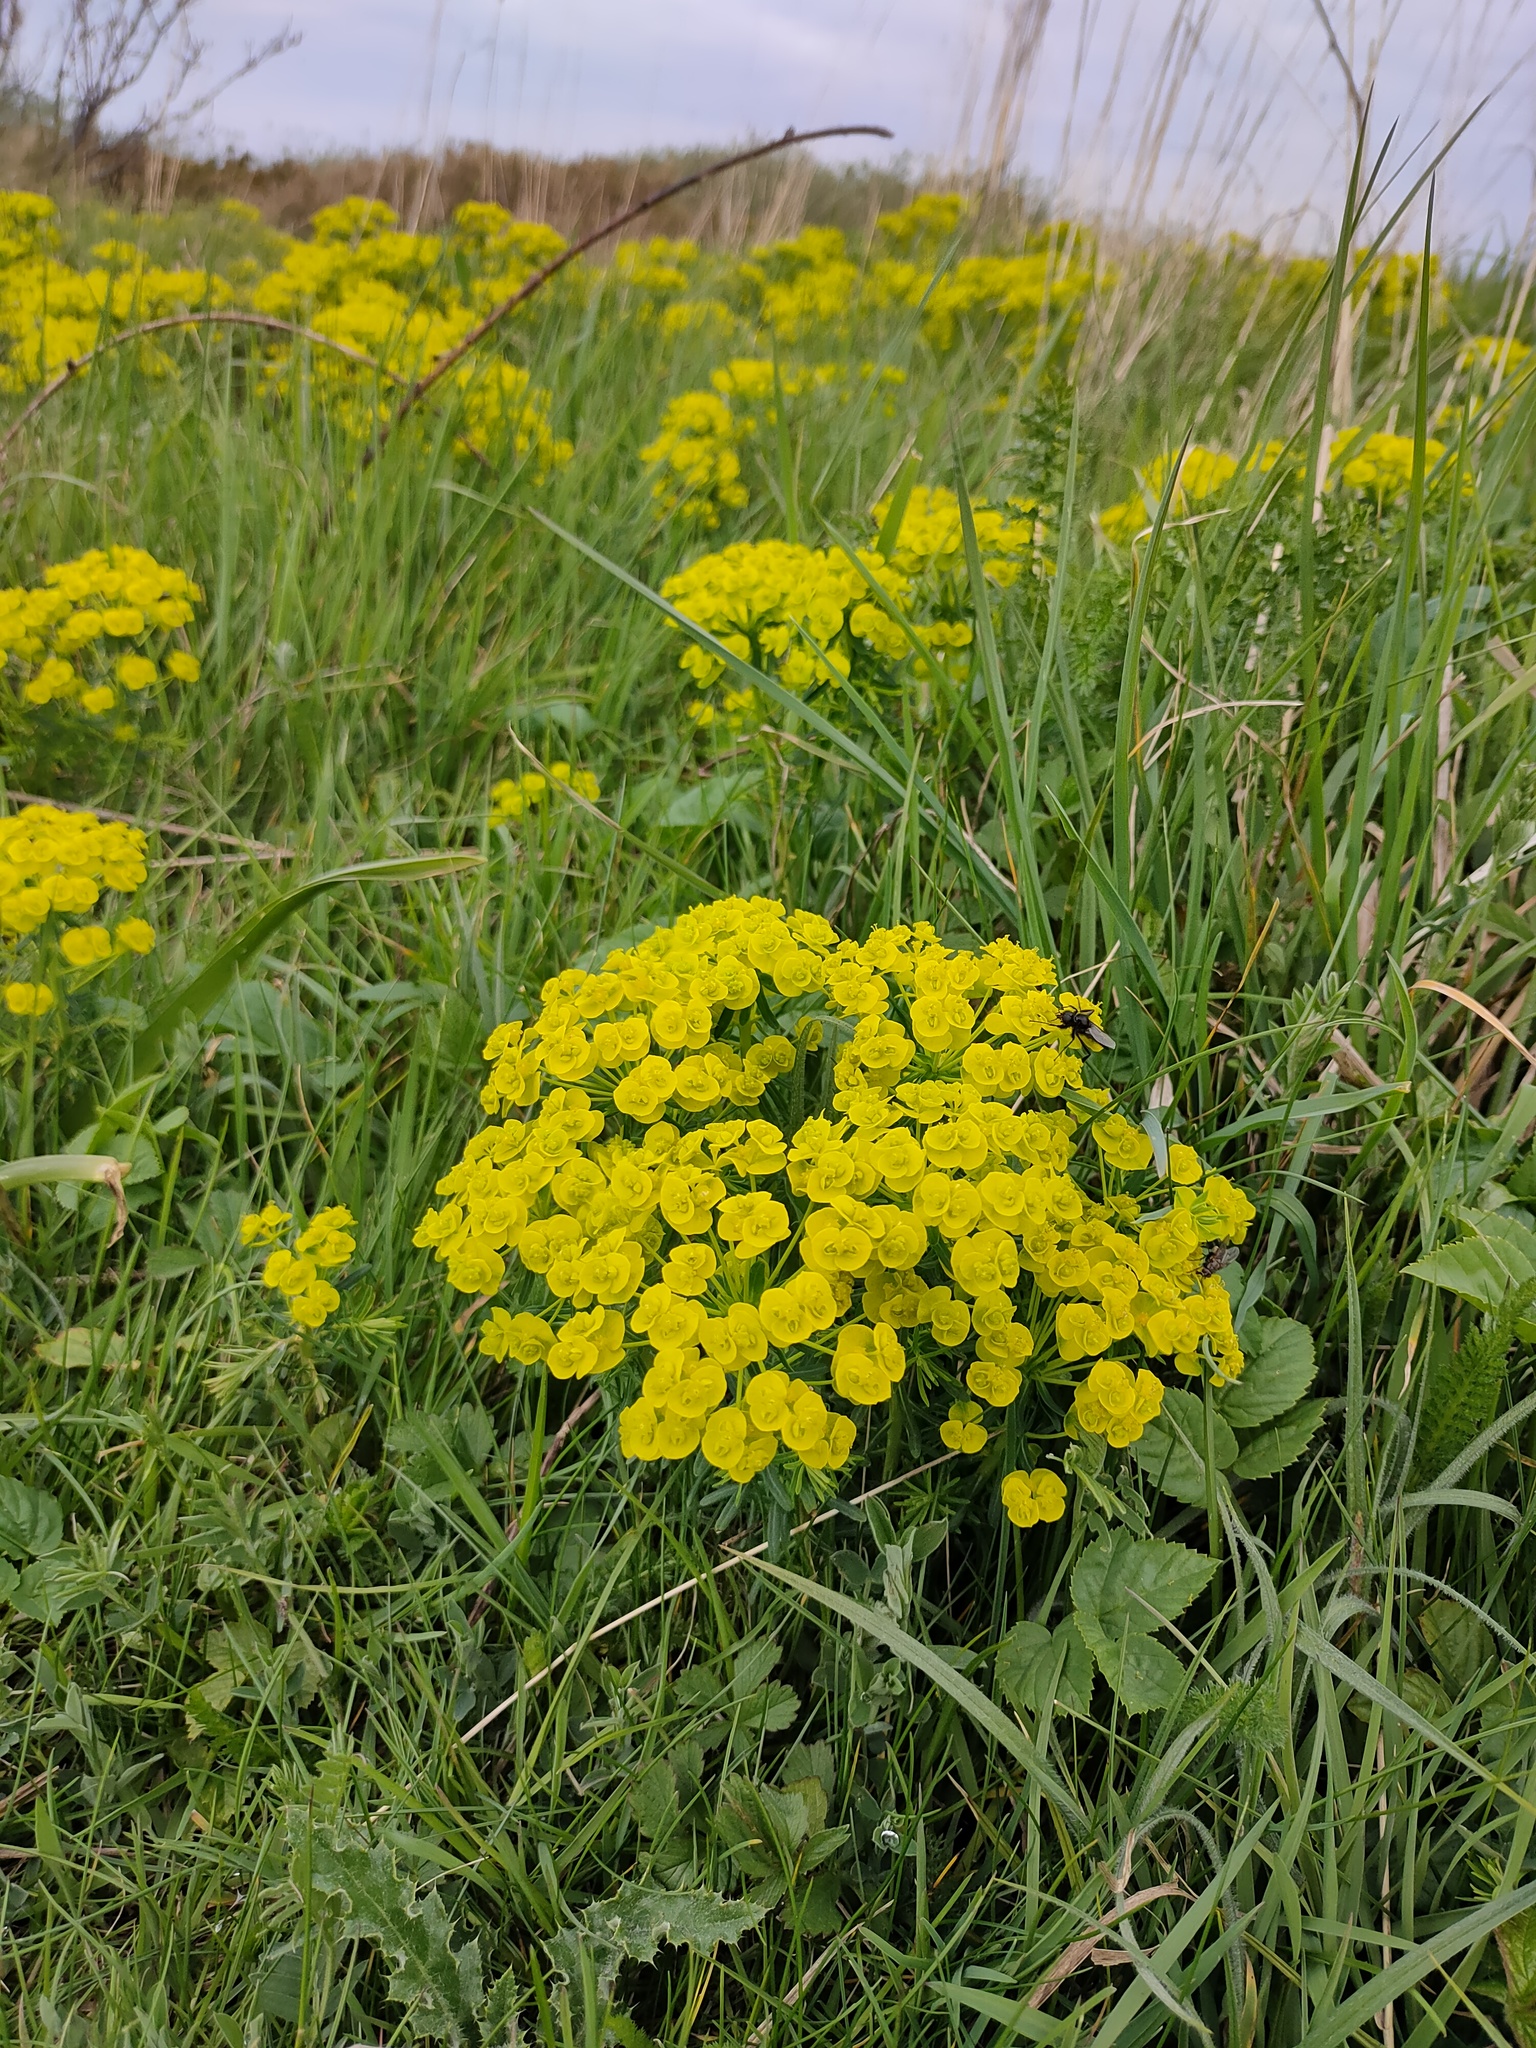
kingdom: Plantae
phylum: Tracheophyta
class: Magnoliopsida
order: Malpighiales
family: Euphorbiaceae
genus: Euphorbia
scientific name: Euphorbia cyparissias
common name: Cypress spurge
